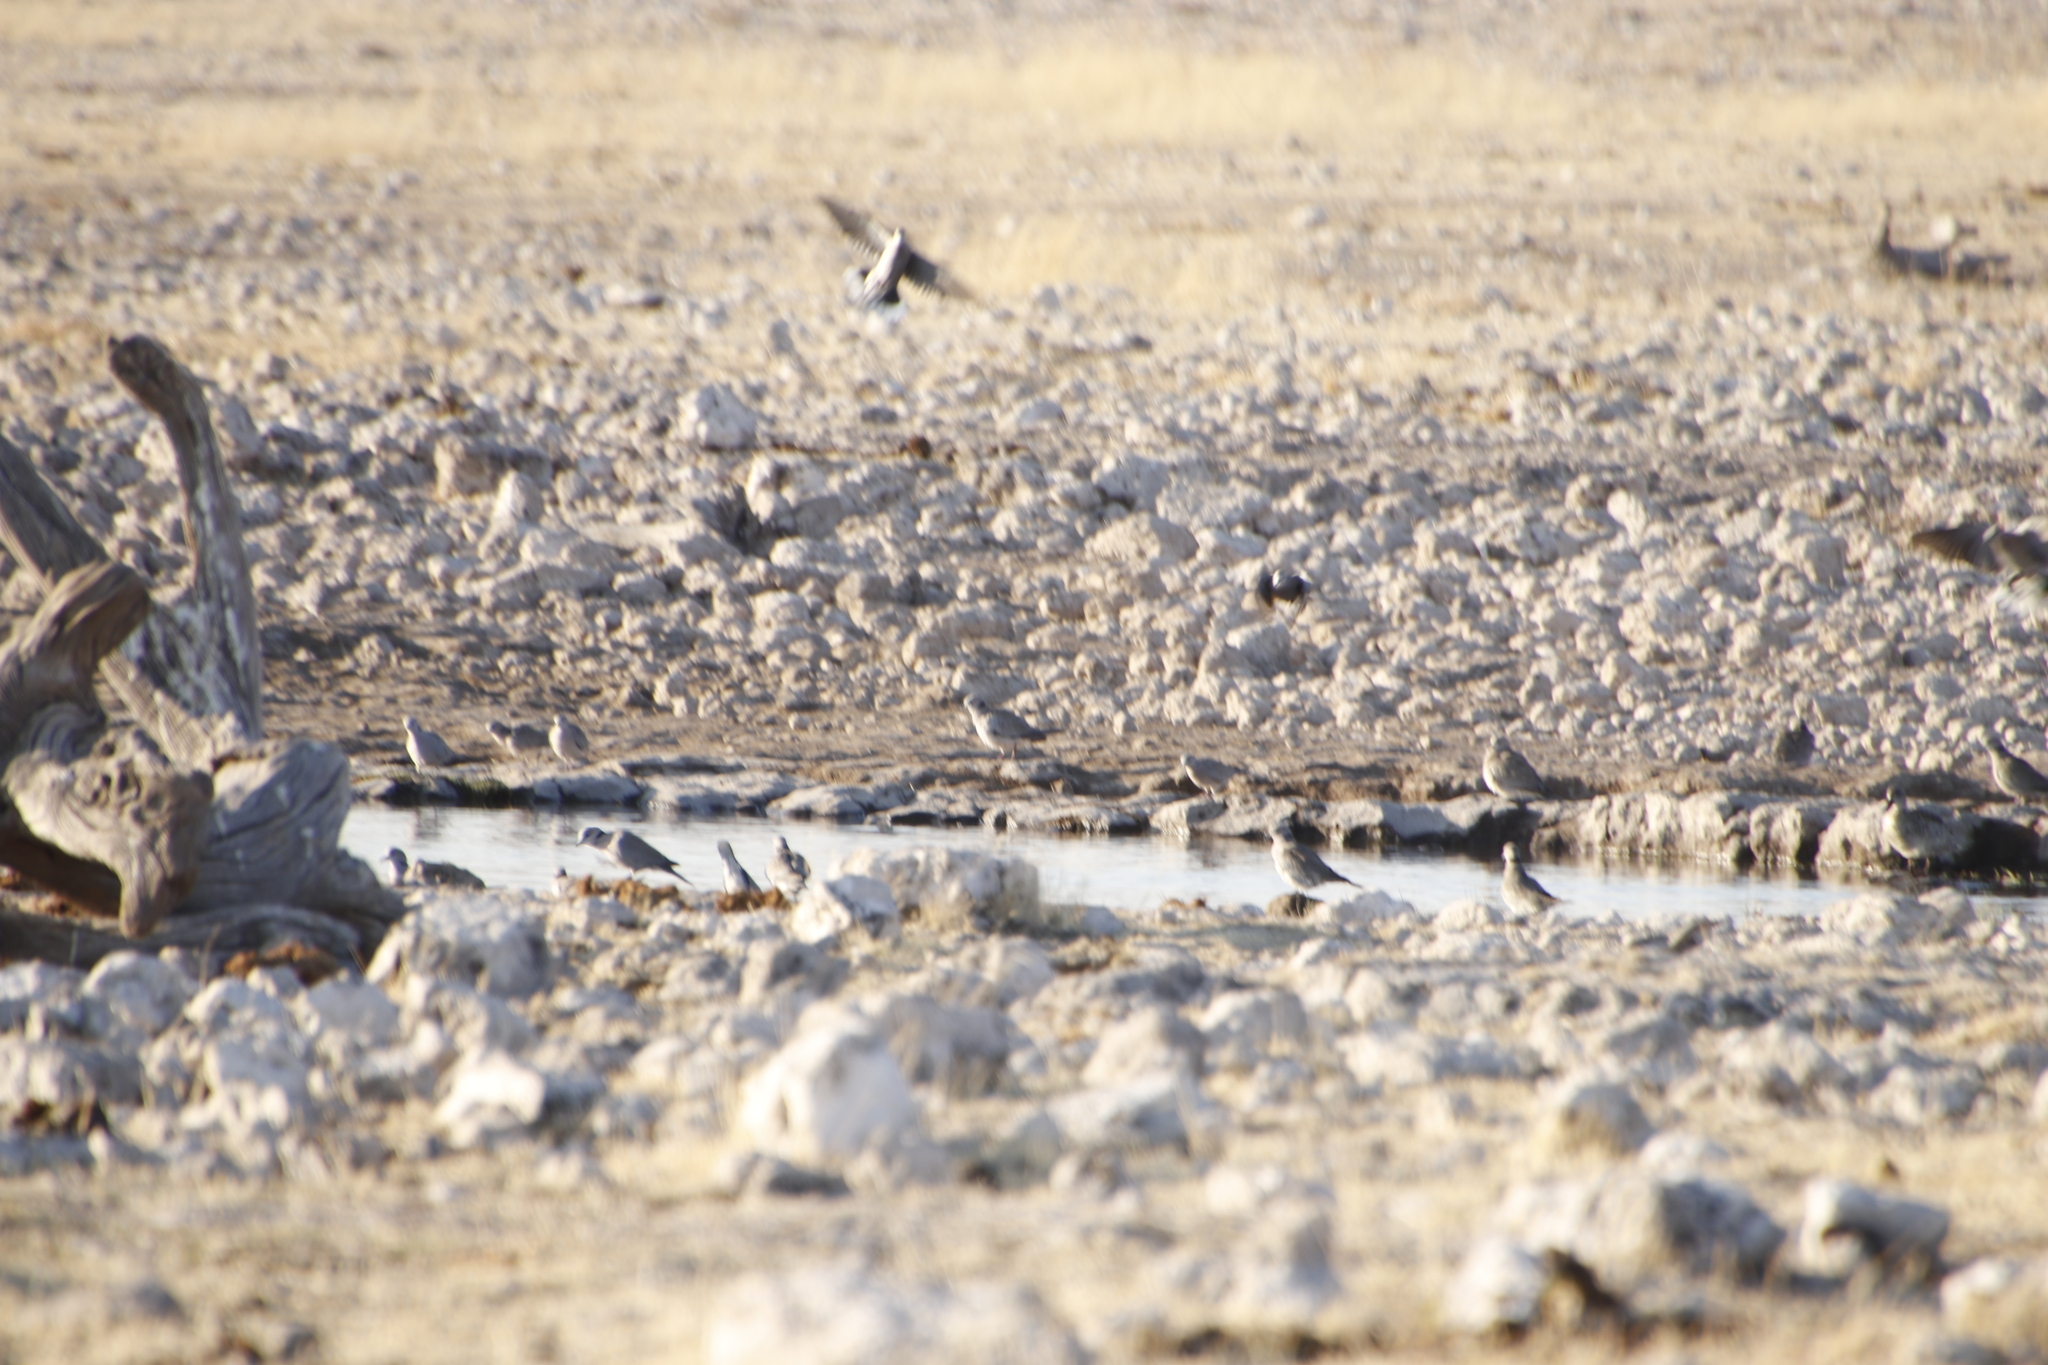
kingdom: Animalia
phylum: Chordata
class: Aves
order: Columbiformes
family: Columbidae
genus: Streptopelia
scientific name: Streptopelia capicola
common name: Ring-necked dove
